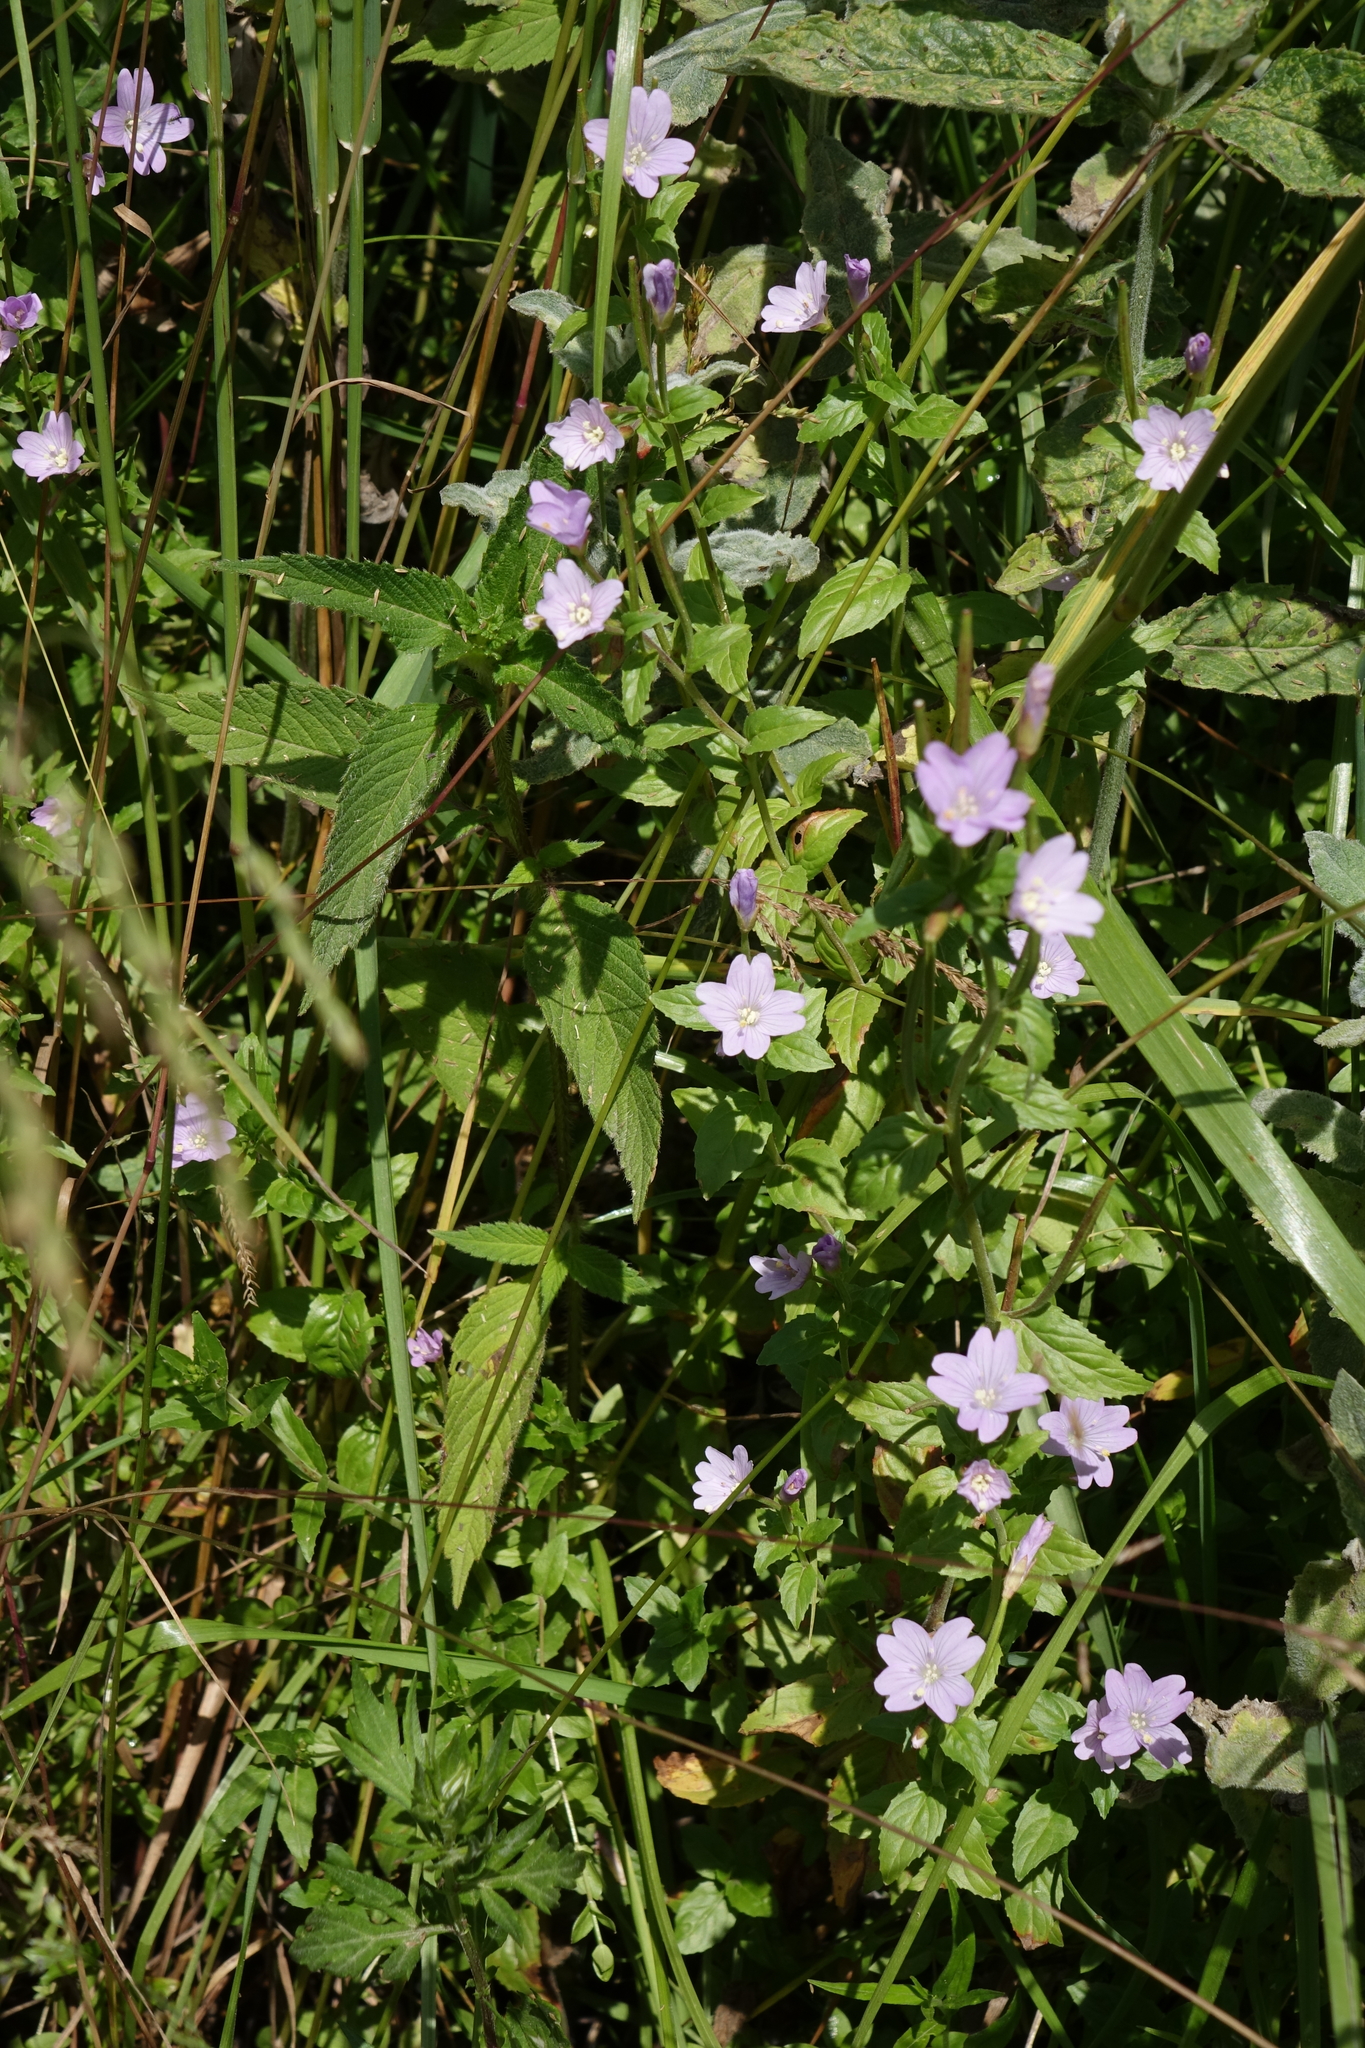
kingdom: Plantae
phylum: Tracheophyta
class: Magnoliopsida
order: Myrtales
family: Onagraceae
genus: Epilobium
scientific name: Epilobium algidum
